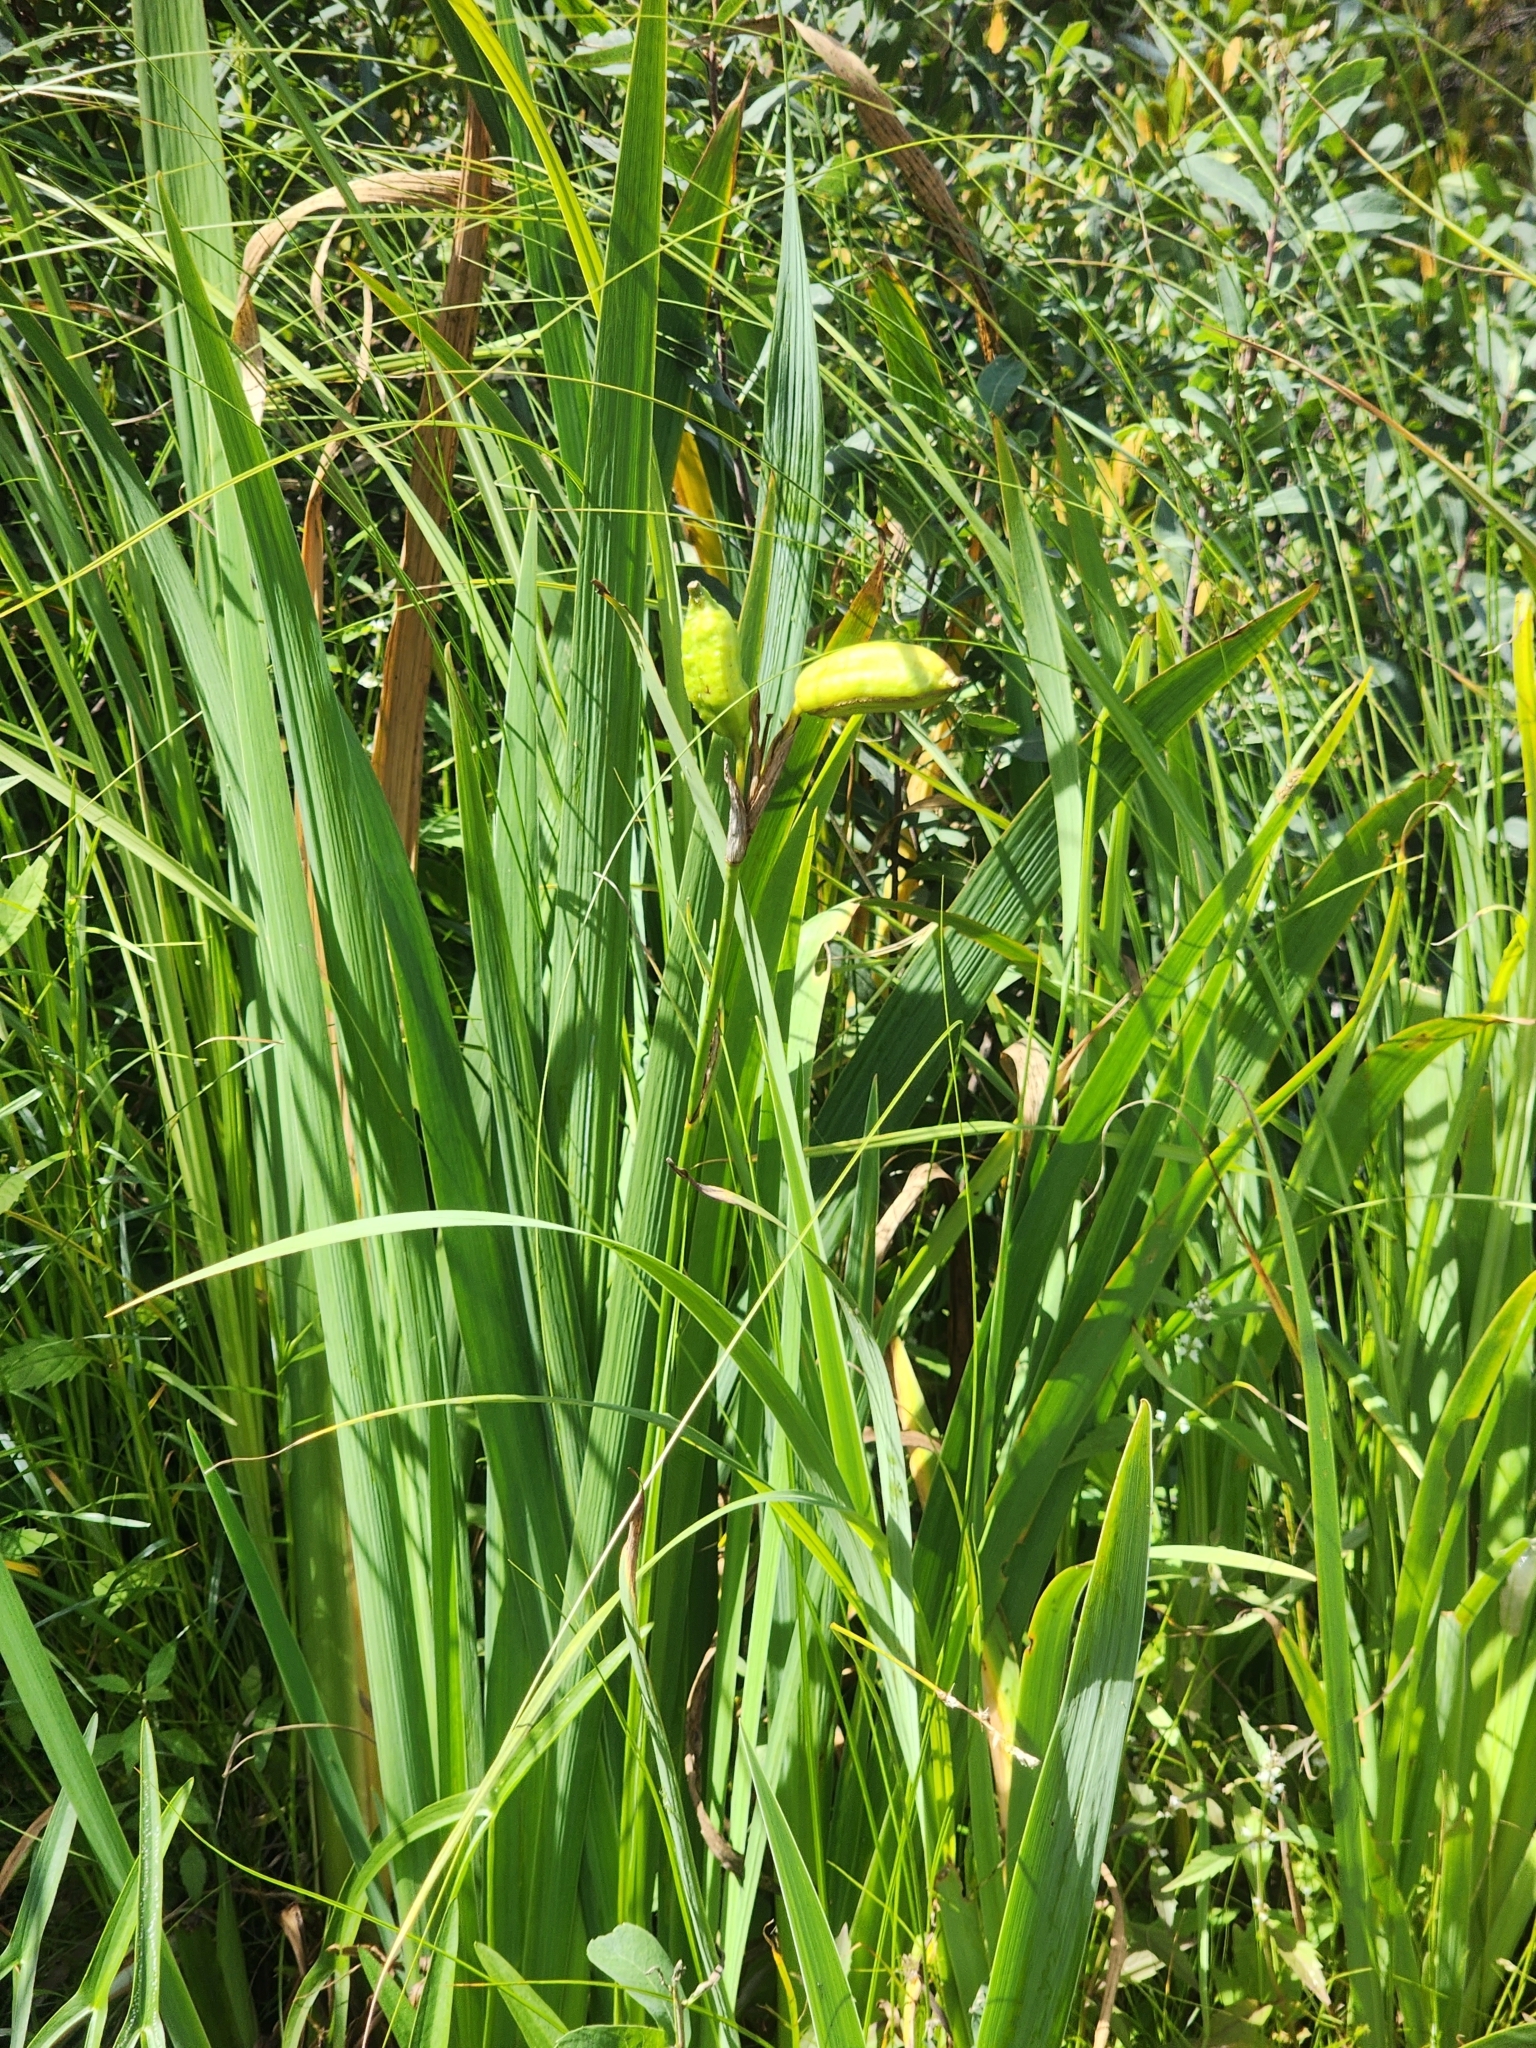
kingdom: Plantae
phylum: Tracheophyta
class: Liliopsida
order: Asparagales
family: Iridaceae
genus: Iris
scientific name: Iris versicolor
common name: Purple iris
